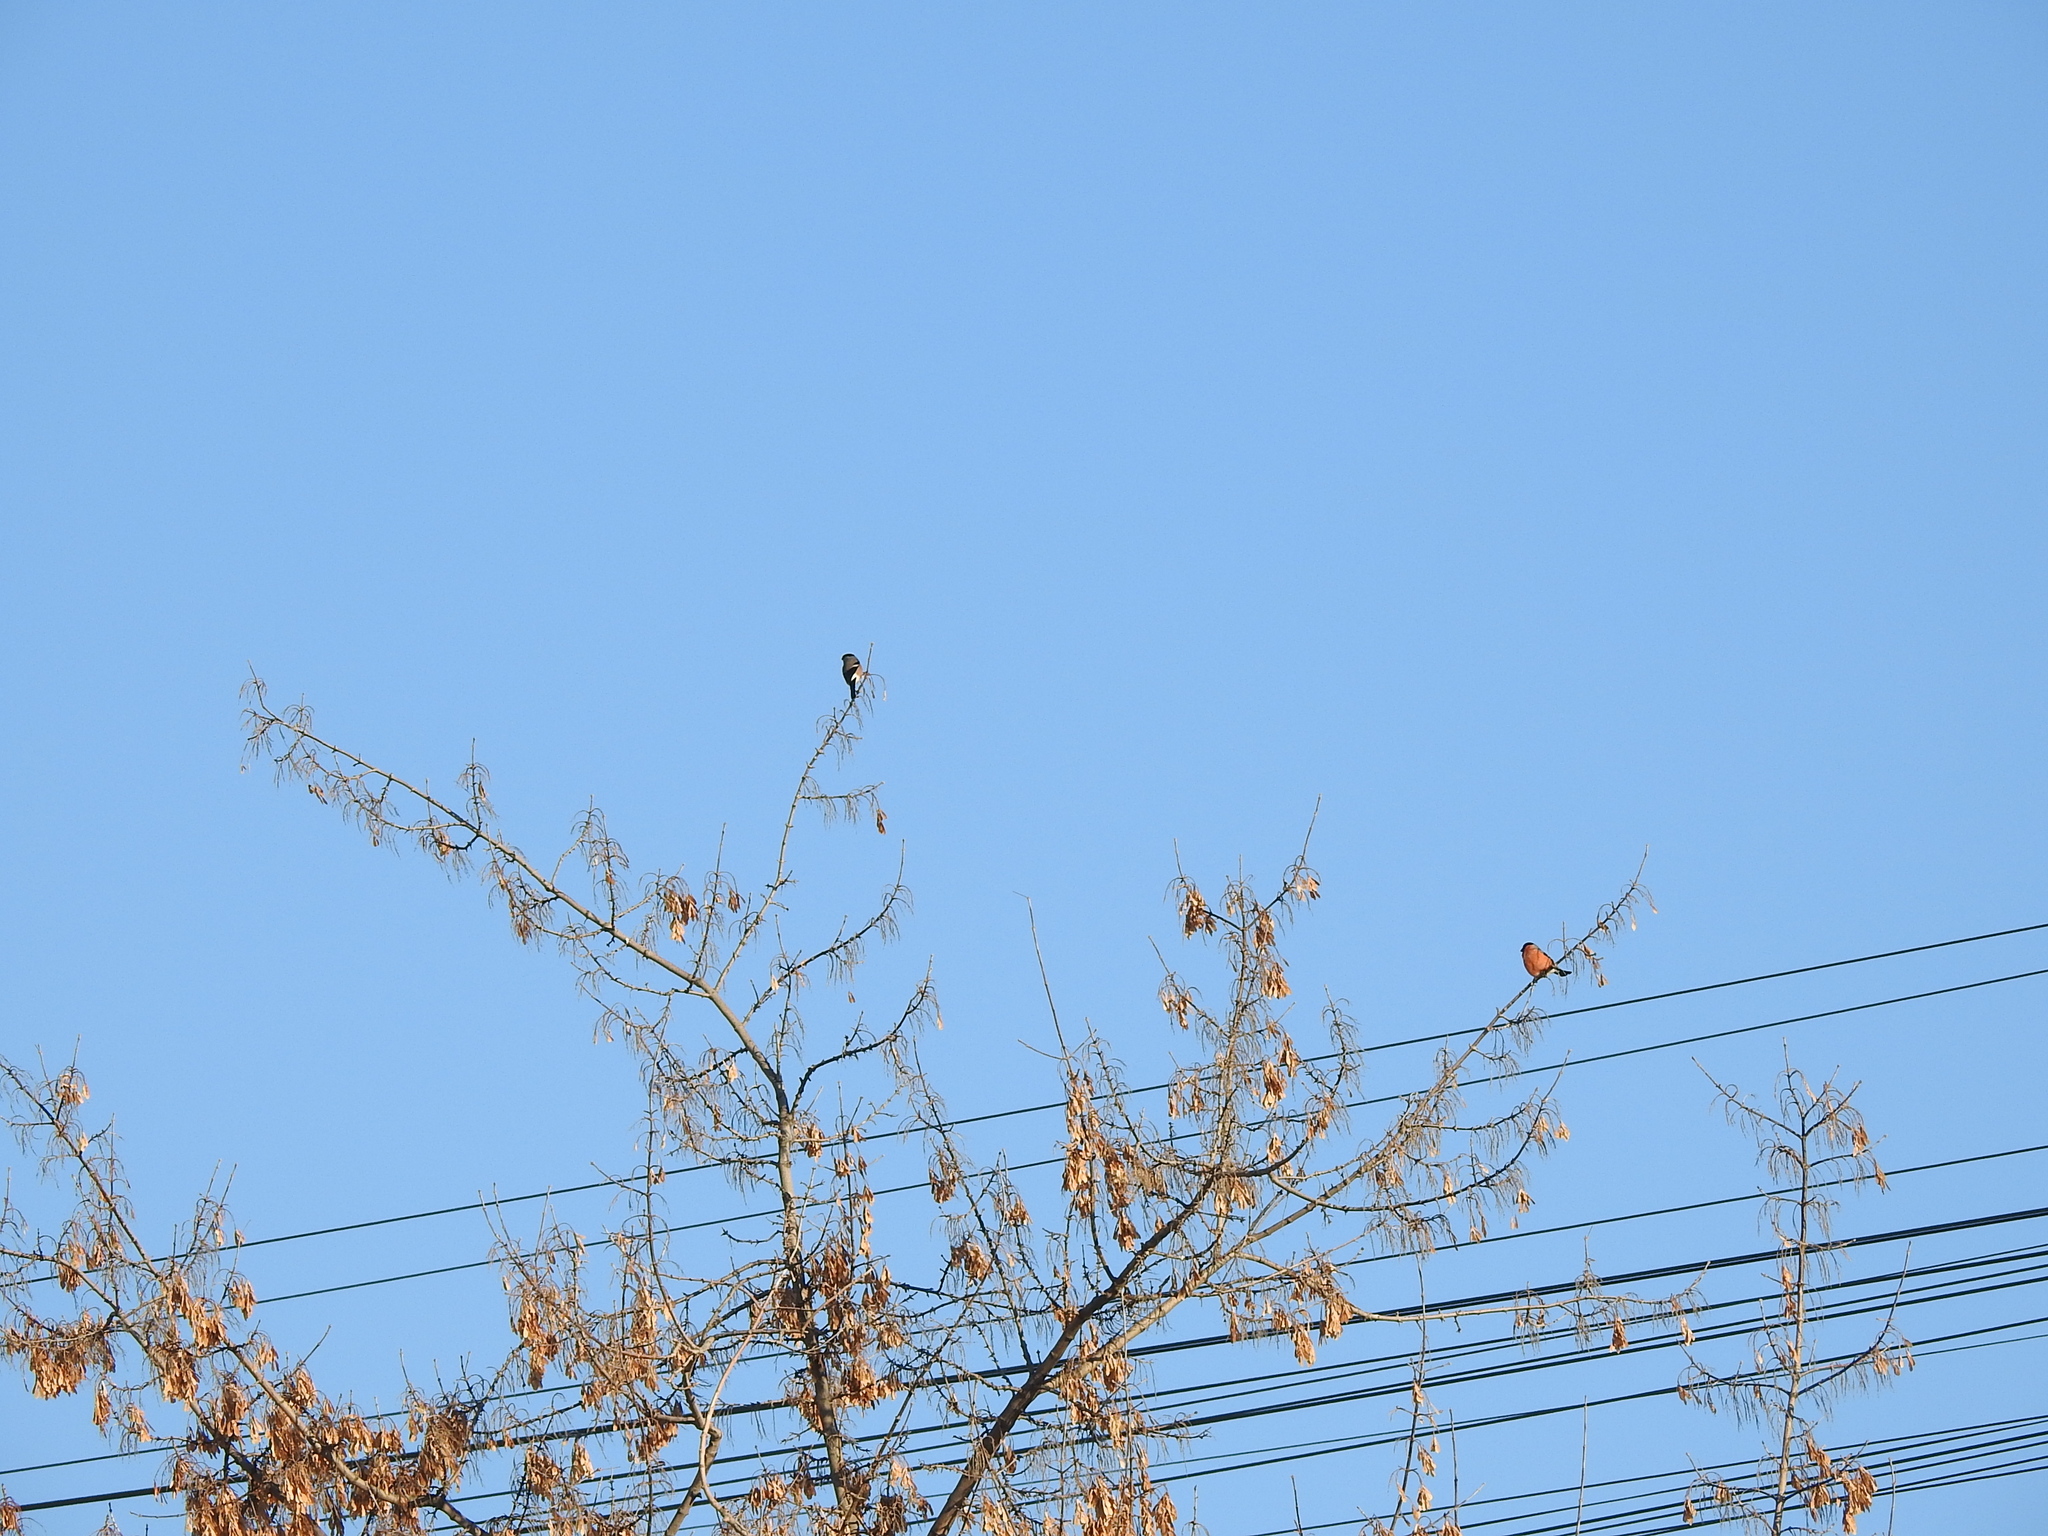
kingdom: Animalia
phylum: Chordata
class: Aves
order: Passeriformes
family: Fringillidae
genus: Pyrrhula
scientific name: Pyrrhula pyrrhula
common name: Eurasian bullfinch
